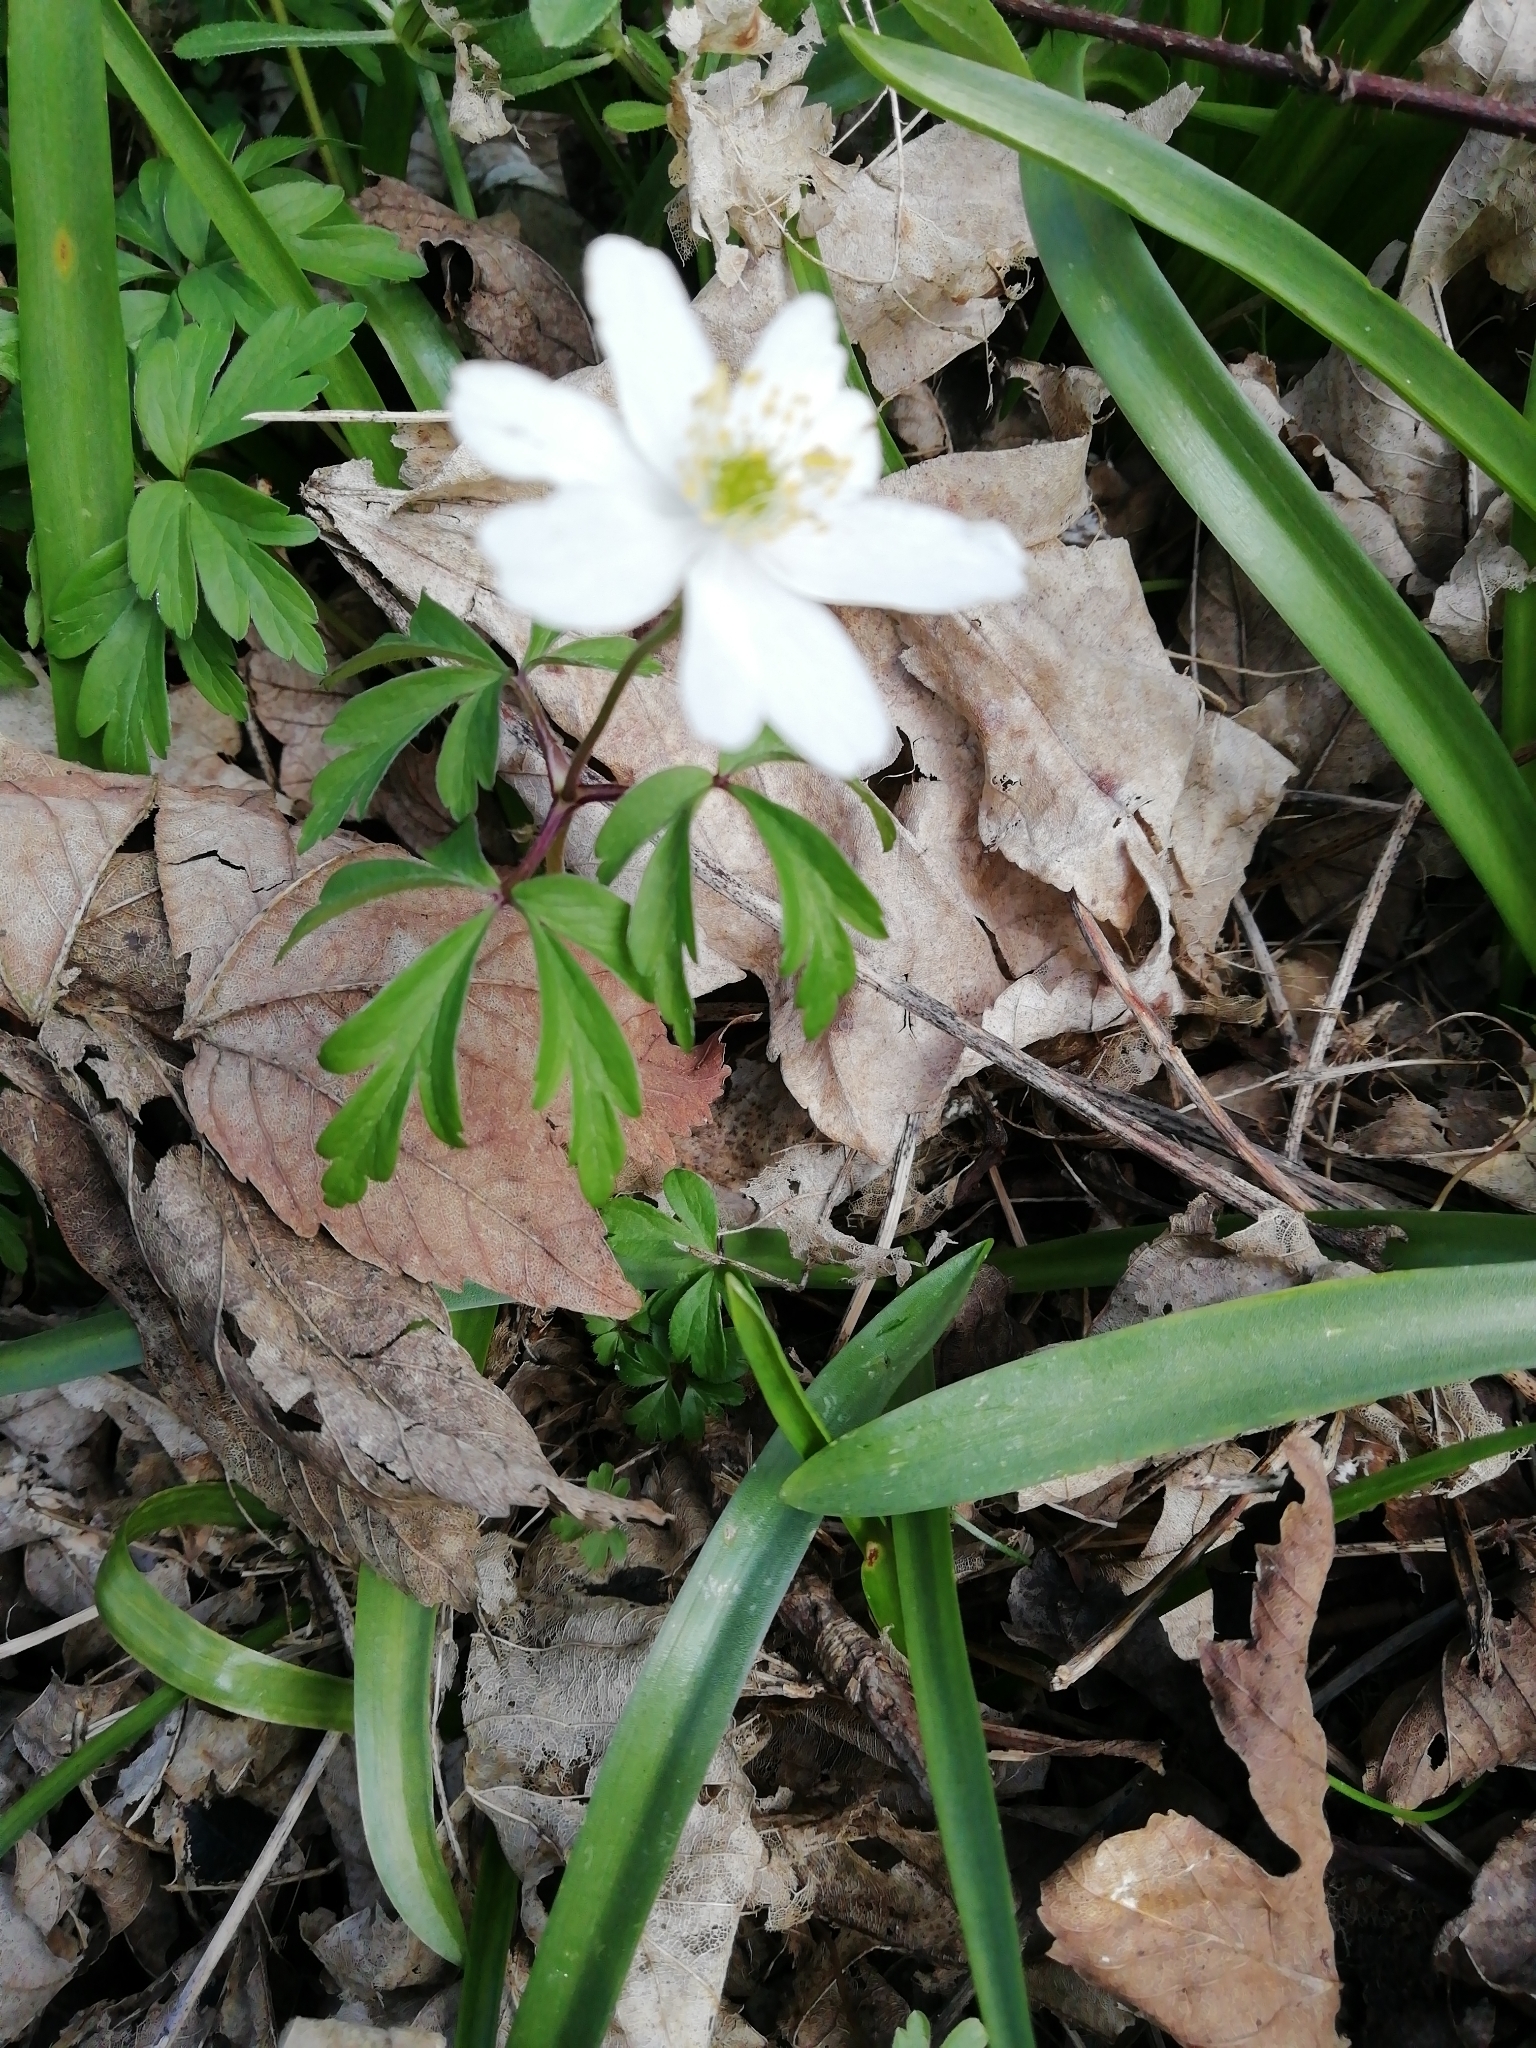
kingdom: Plantae
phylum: Tracheophyta
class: Magnoliopsida
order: Ranunculales
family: Ranunculaceae
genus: Anemone
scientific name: Anemone nemorosa
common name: Wood anemone
